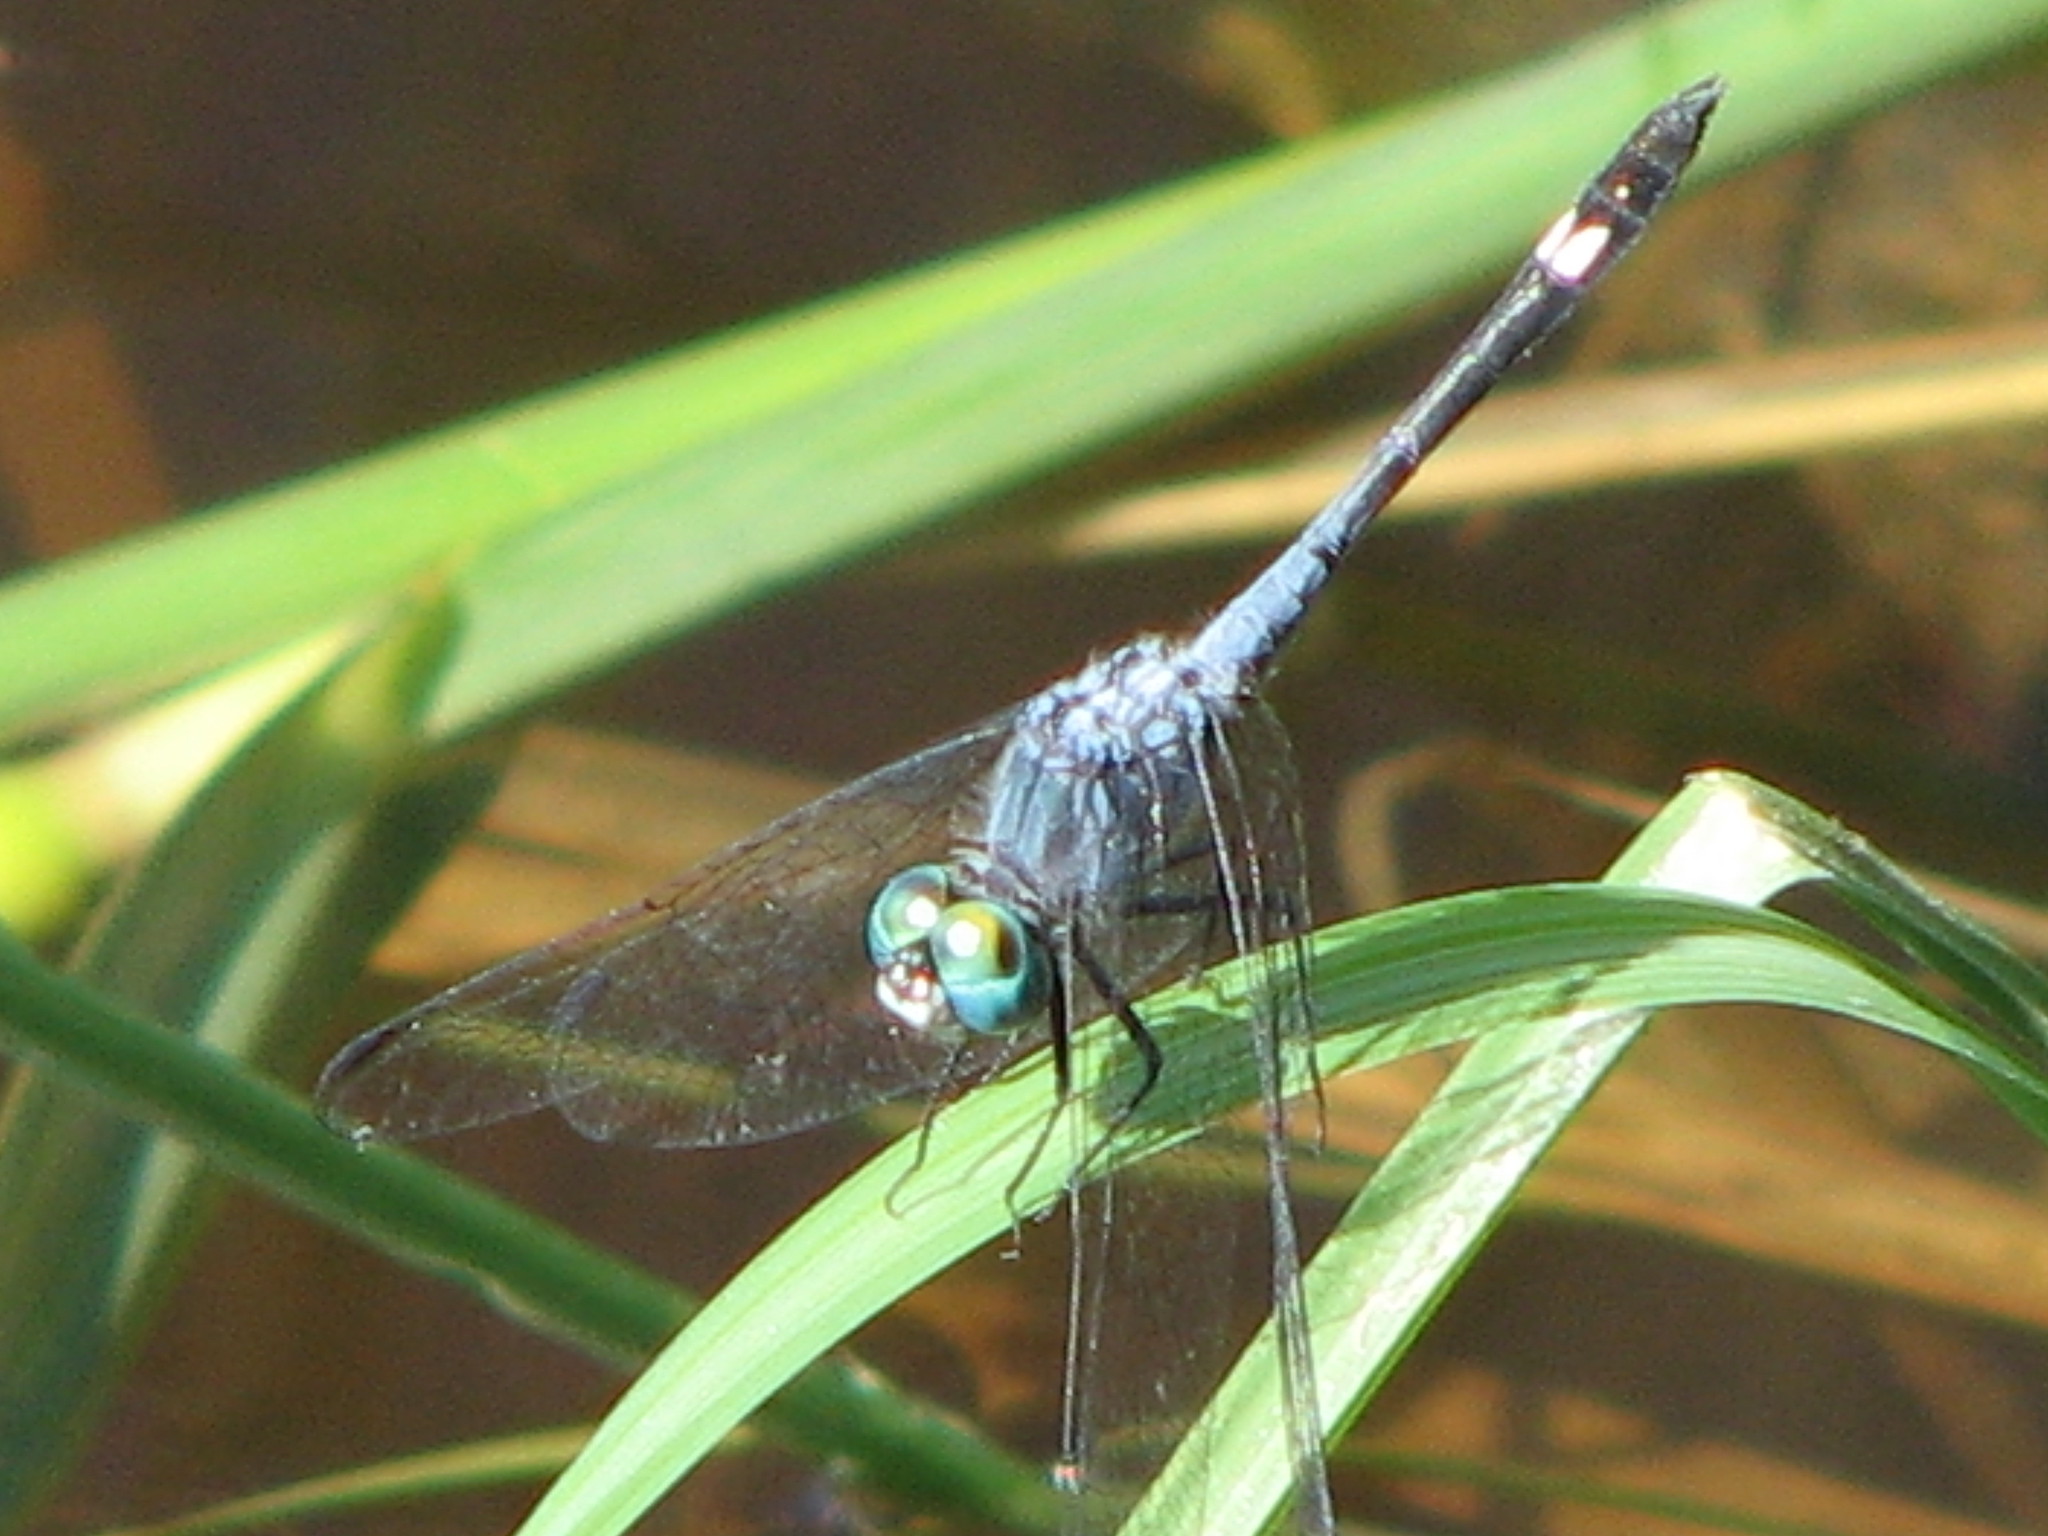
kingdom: Animalia
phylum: Arthropoda
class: Insecta
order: Odonata
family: Libellulidae
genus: Micrathyria
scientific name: Micrathyria aequalis
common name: Spot-tailed dasher
